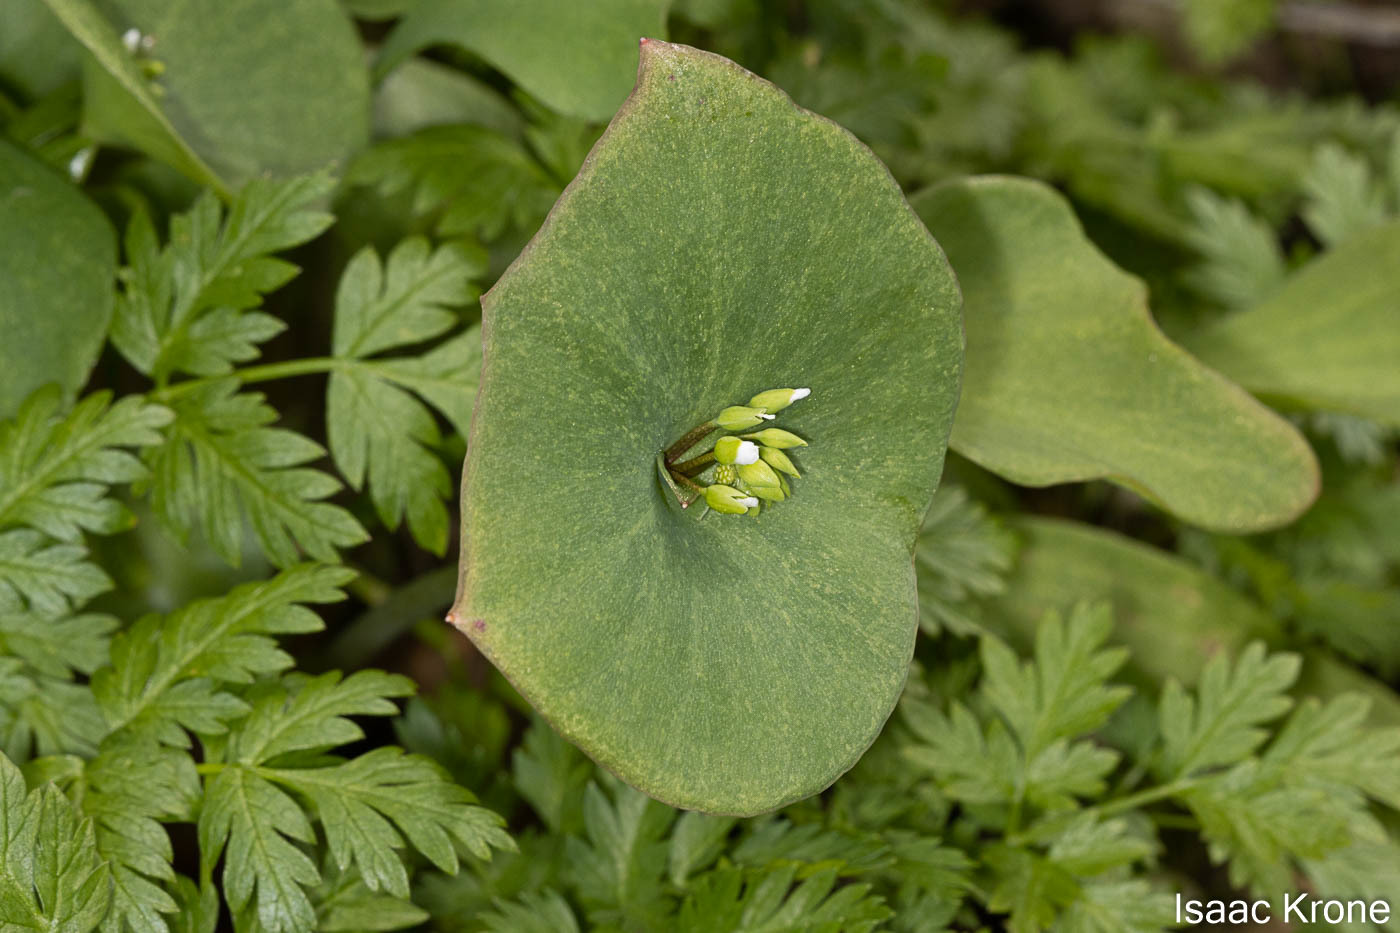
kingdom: Plantae
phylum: Tracheophyta
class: Magnoliopsida
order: Caryophyllales
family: Montiaceae
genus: Claytonia
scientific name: Claytonia perfoliata
